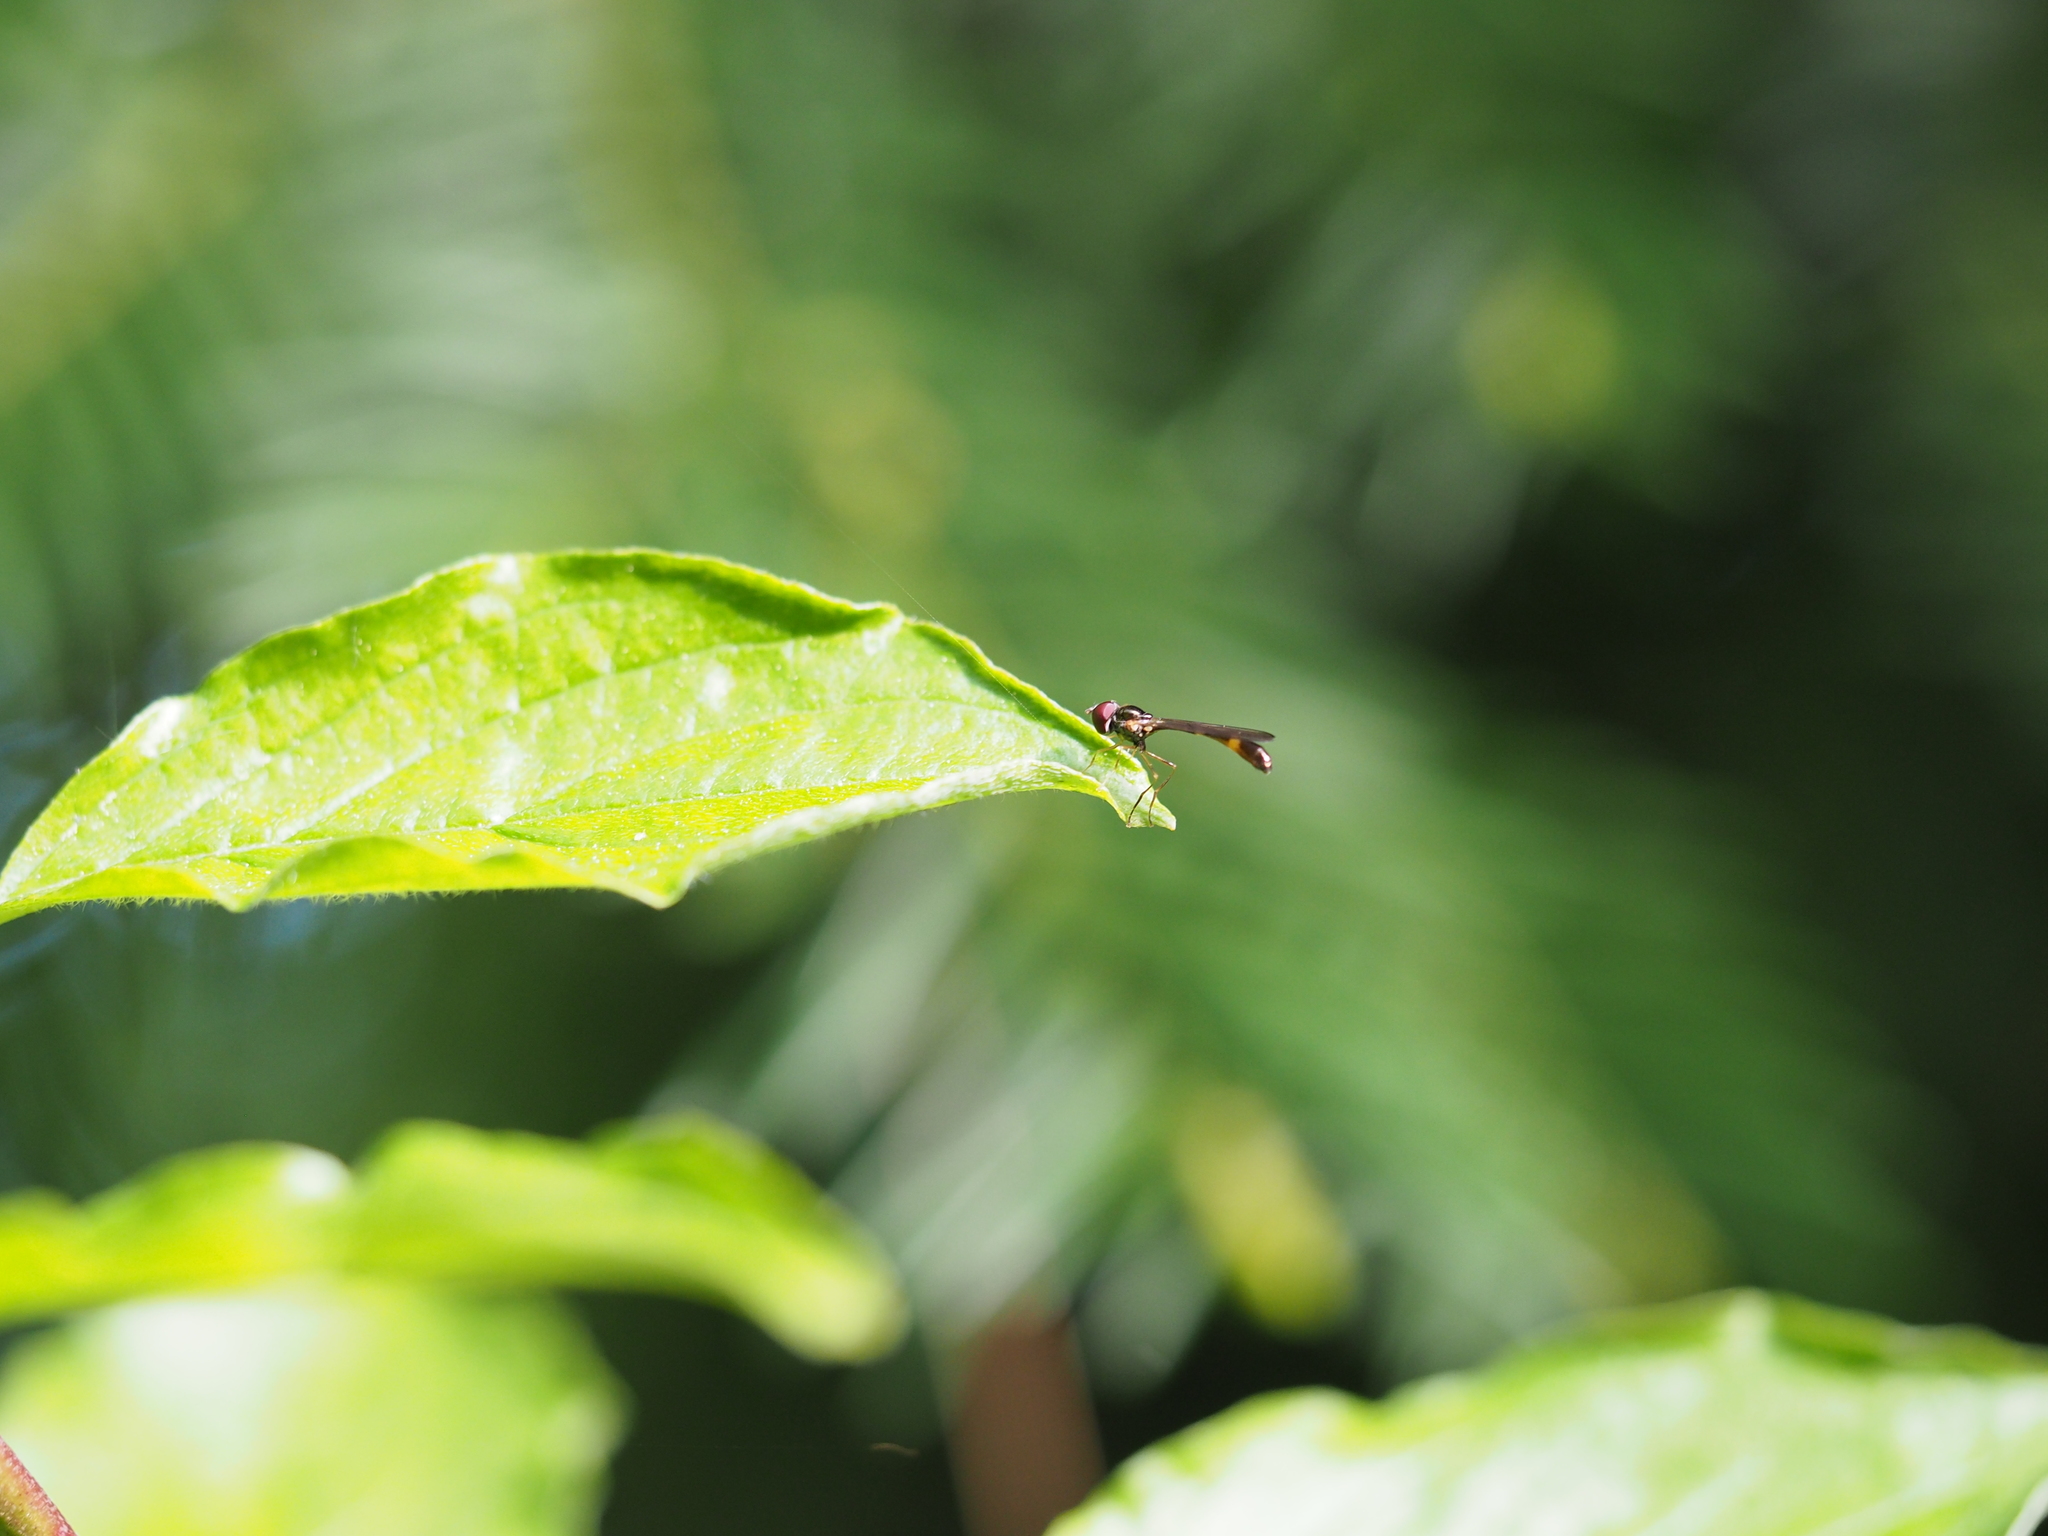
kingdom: Animalia
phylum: Arthropoda
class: Insecta
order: Diptera
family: Syrphidae
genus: Baccha
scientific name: Baccha elongata
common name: Common dainty
